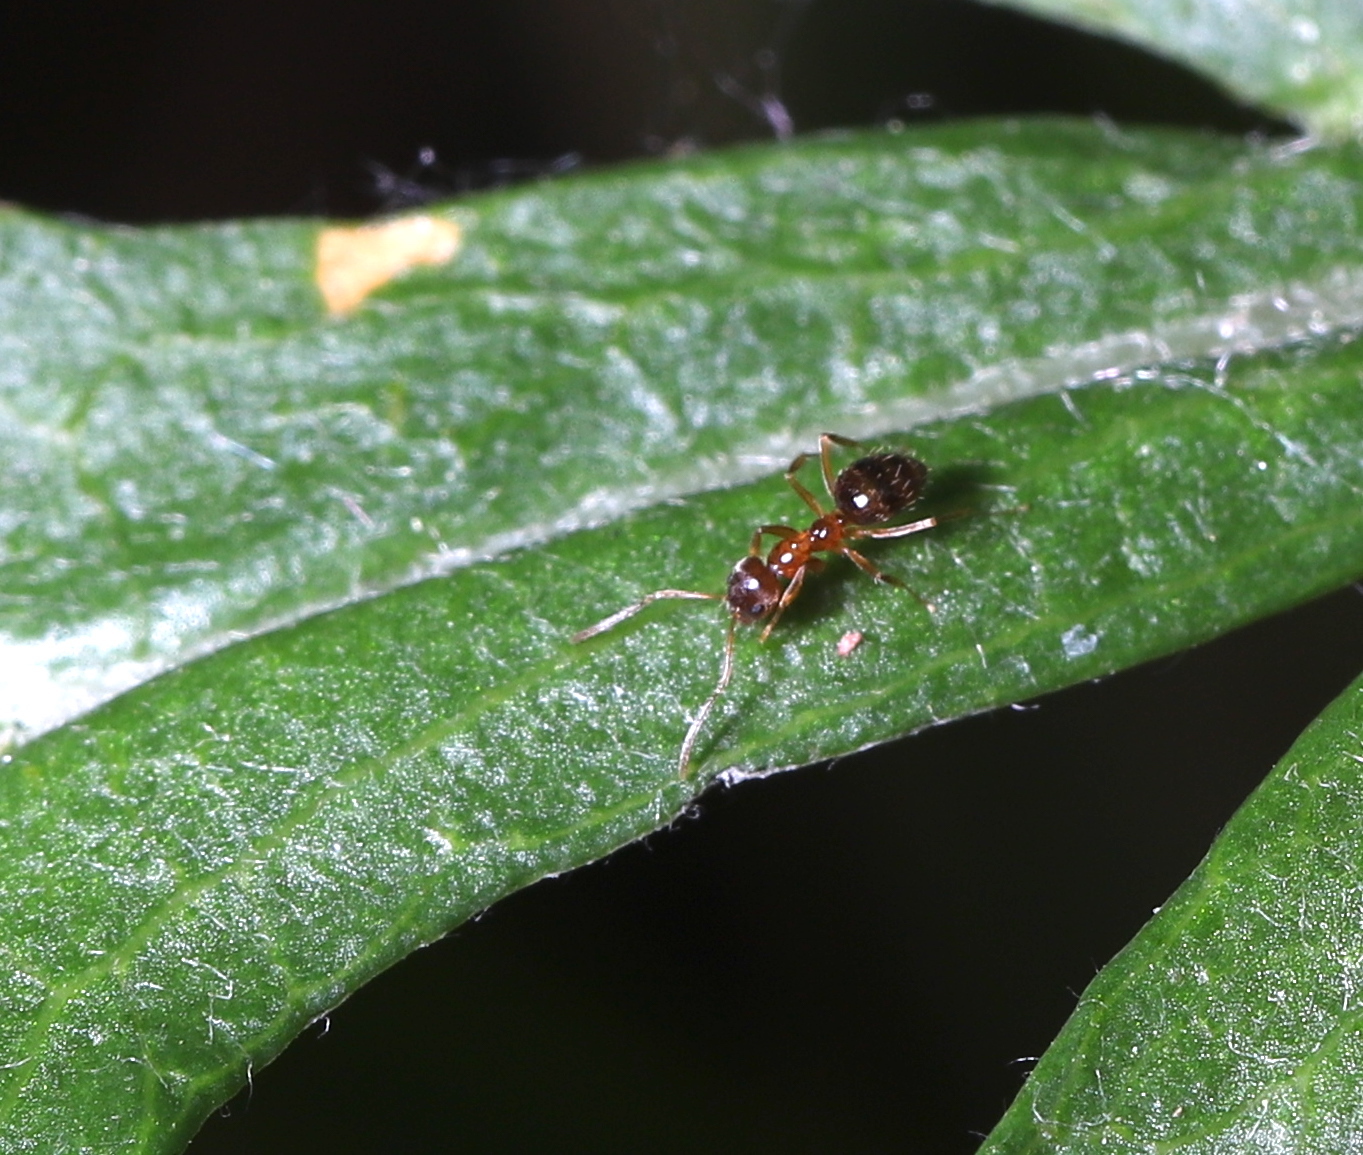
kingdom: Animalia
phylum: Arthropoda
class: Insecta
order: Hymenoptera
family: Formicidae
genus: Paratrechina
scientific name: Paratrechina flavipes
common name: Eastern asian formicine ant
